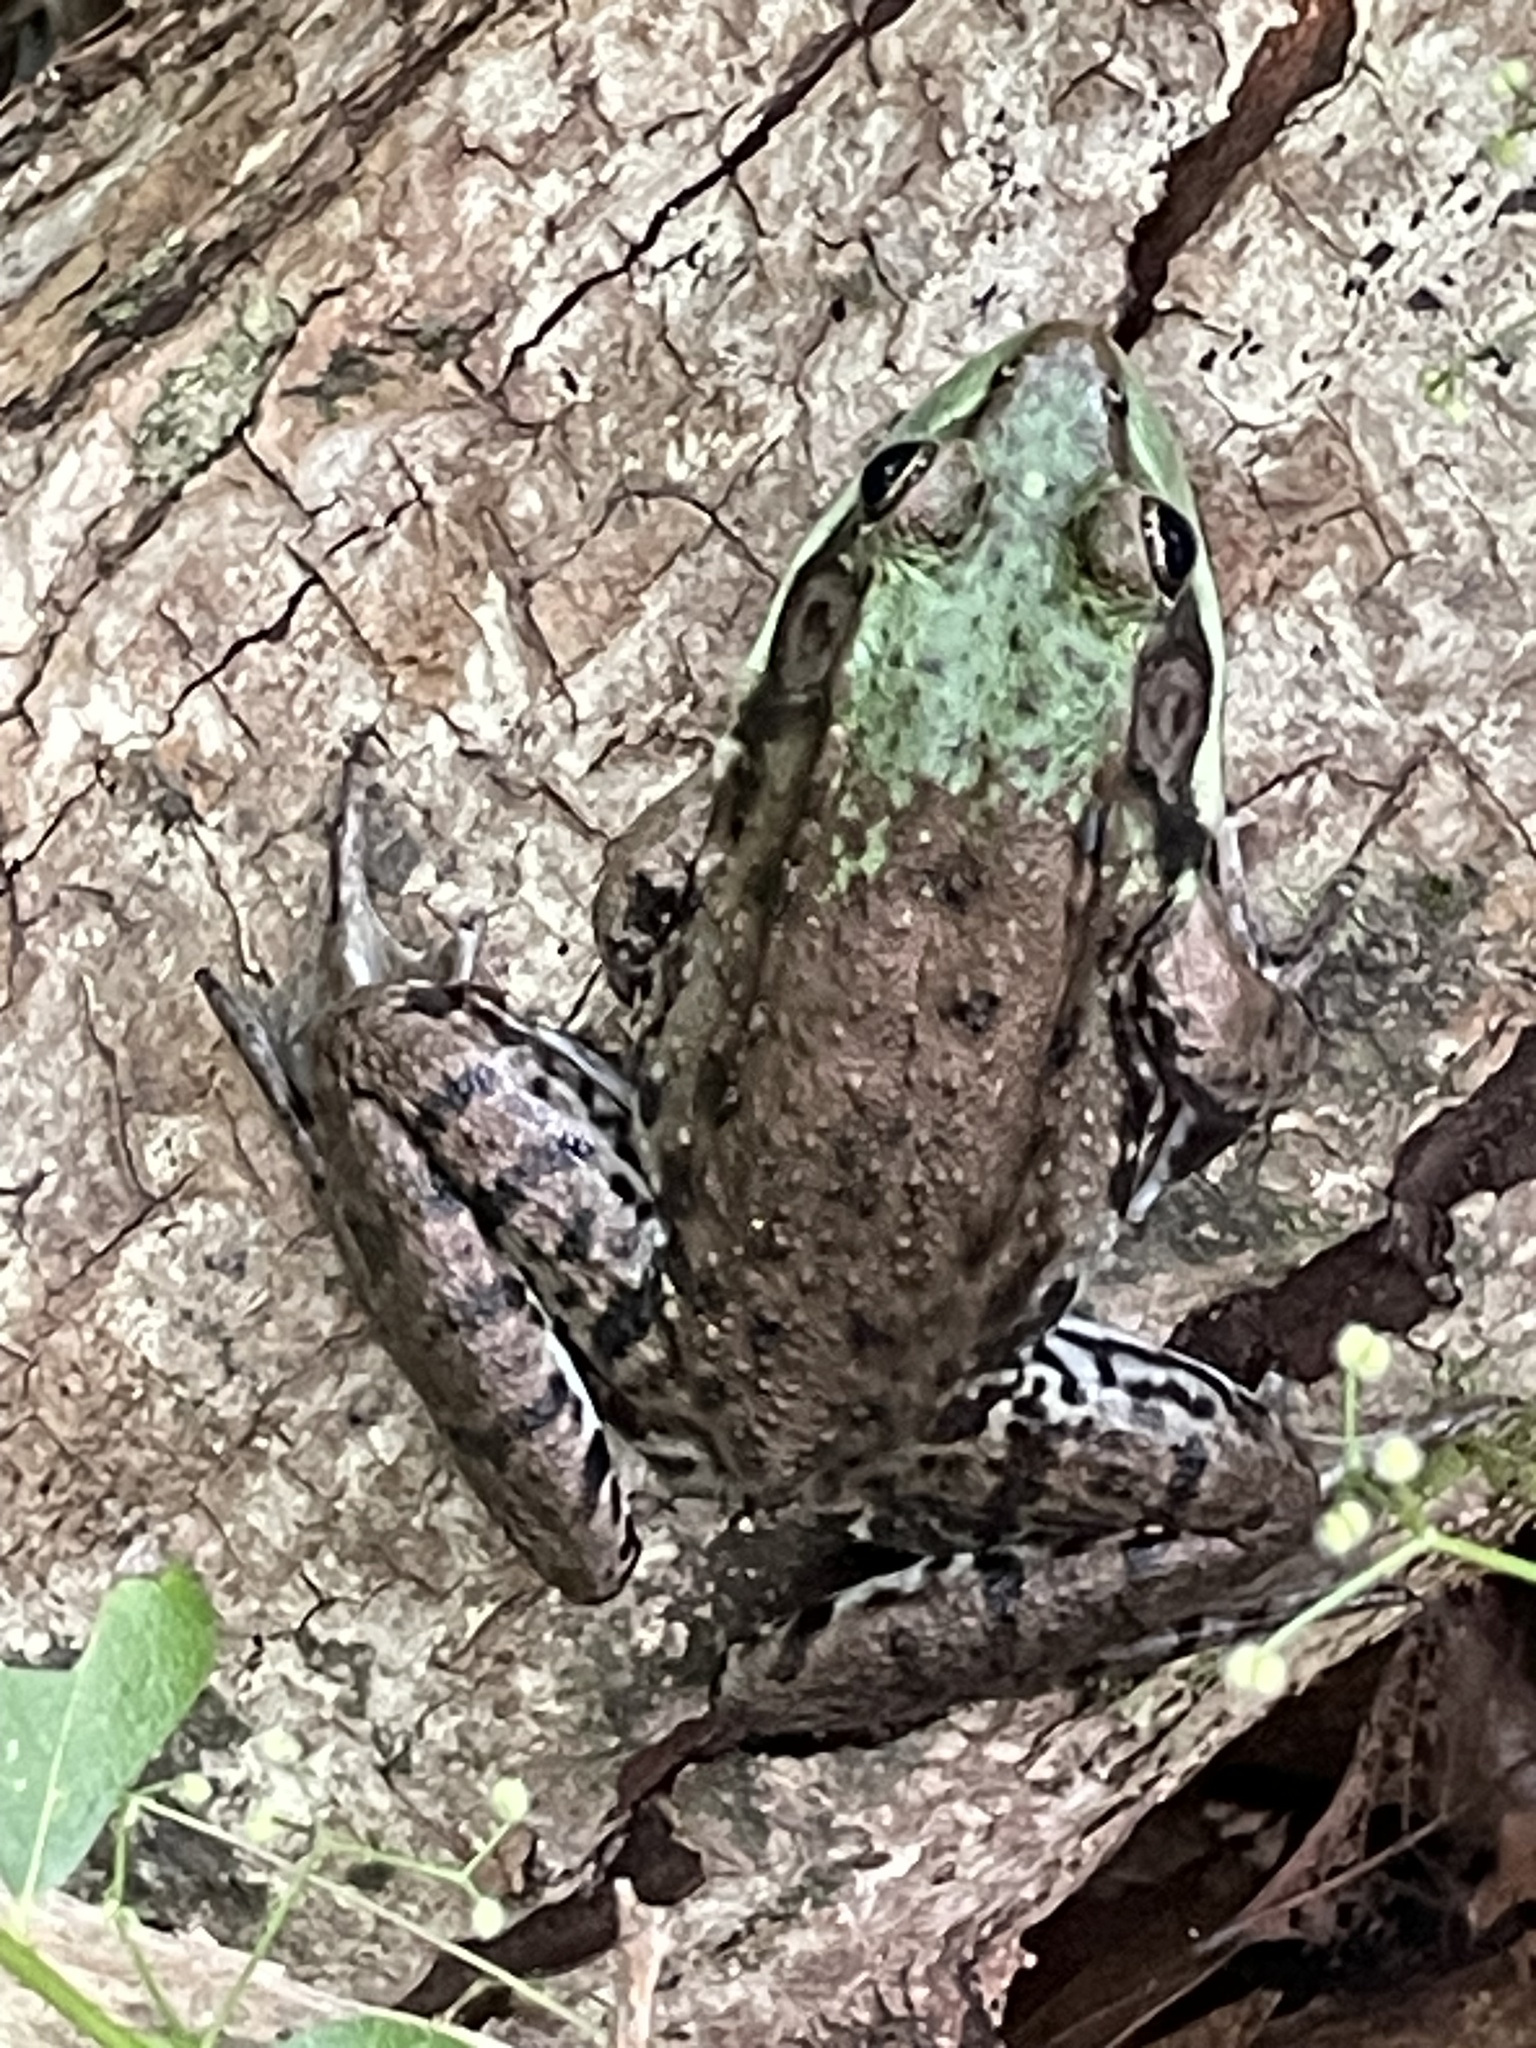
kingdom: Animalia
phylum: Chordata
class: Amphibia
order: Anura
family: Ranidae
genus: Lithobates
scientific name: Lithobates clamitans
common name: Green frog
